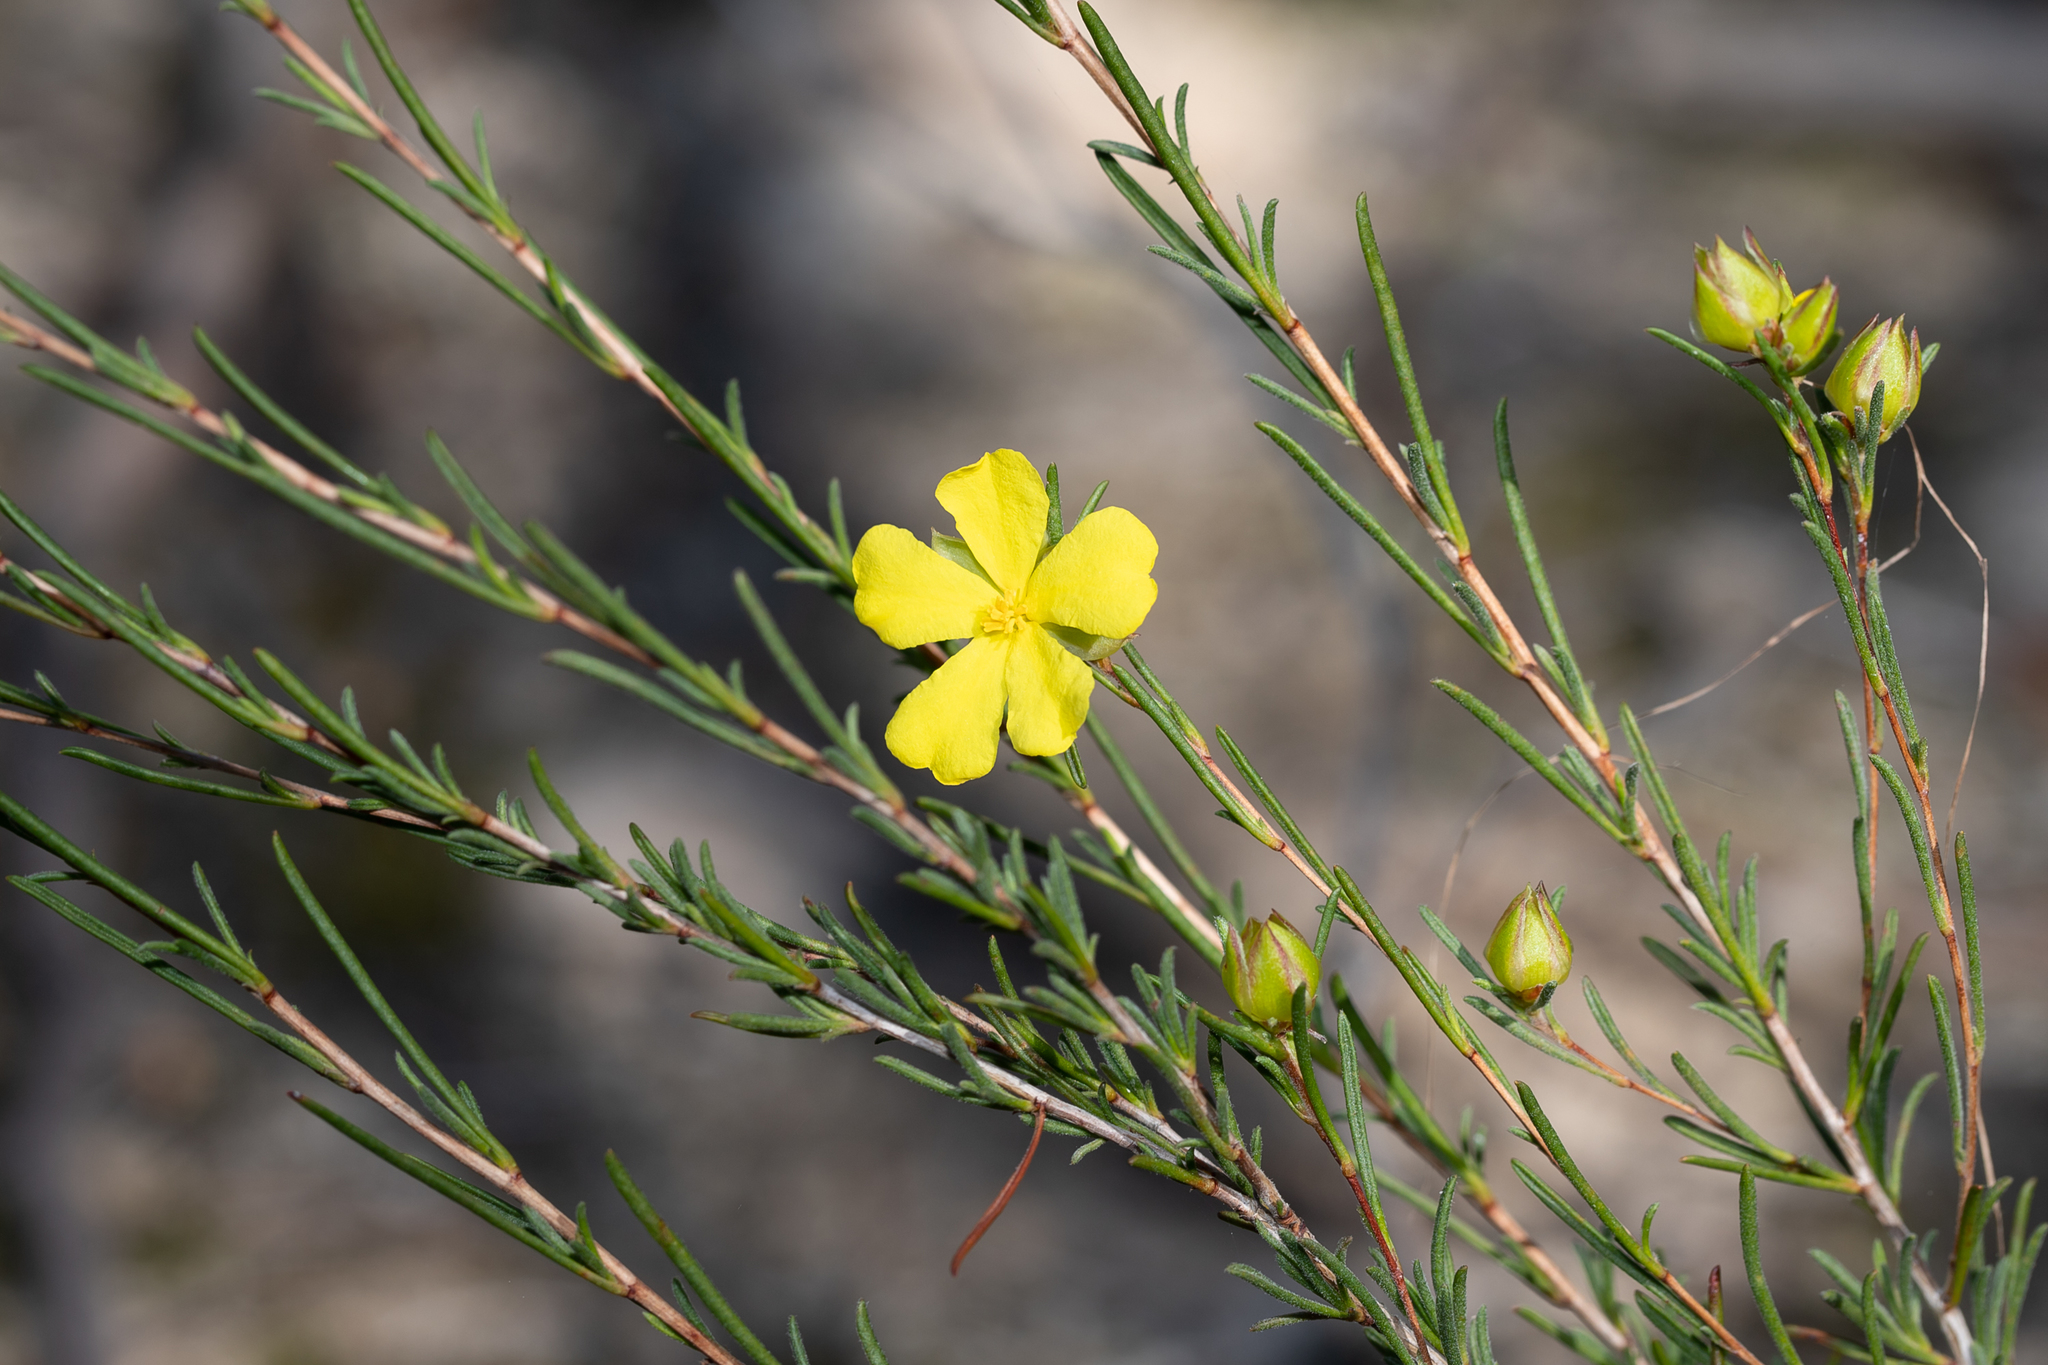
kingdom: Plantae
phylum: Tracheophyta
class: Magnoliopsida
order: Dilleniales
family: Dilleniaceae
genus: Hibbertia
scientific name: Hibbertia virgata
